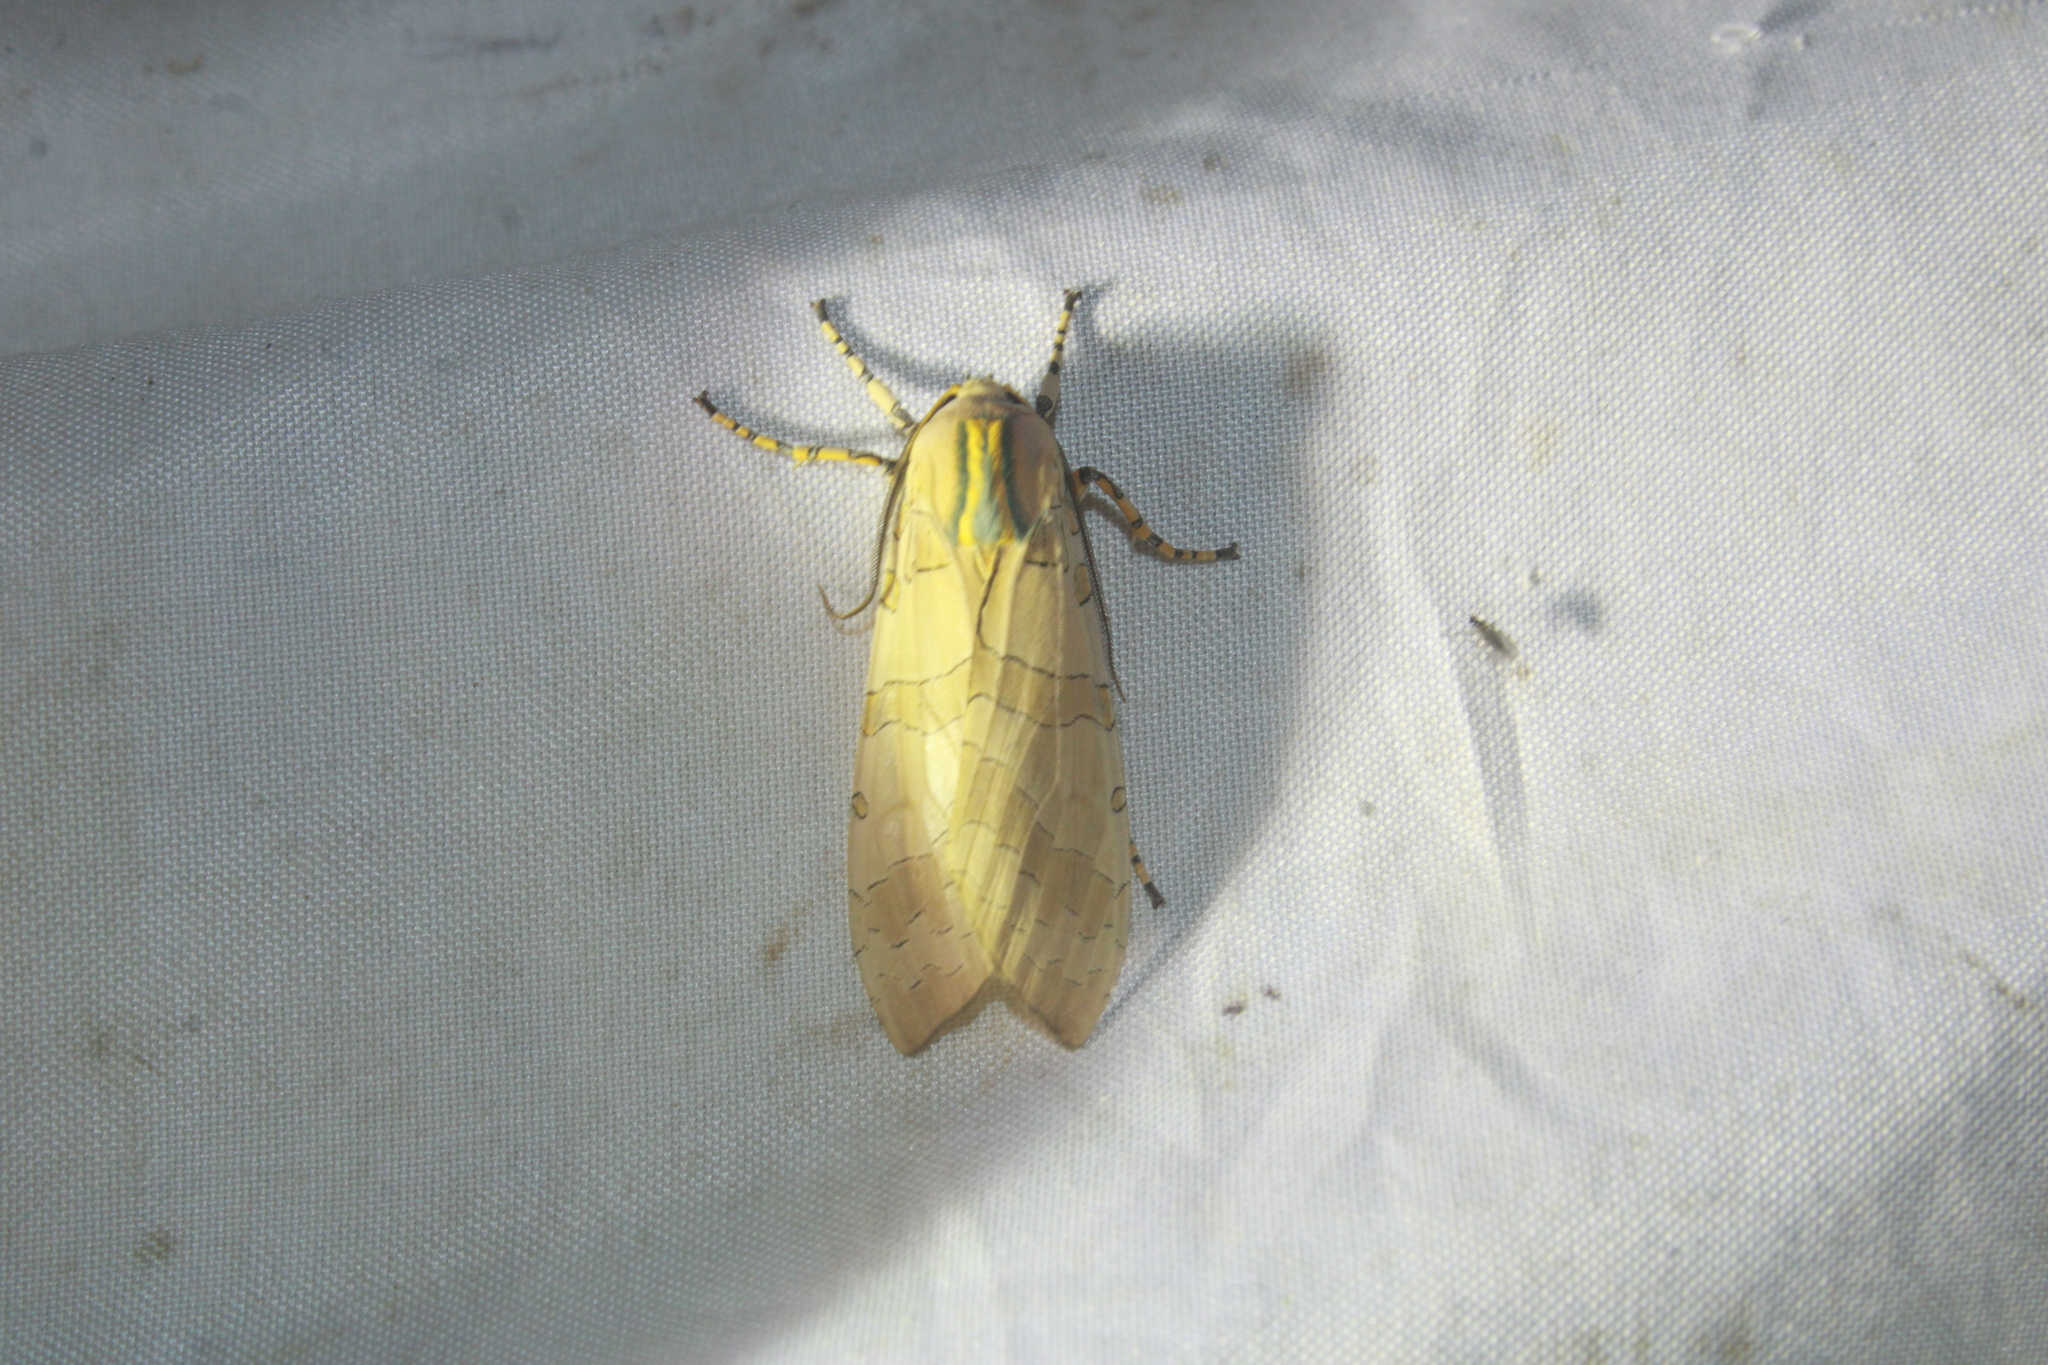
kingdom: Animalia
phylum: Arthropoda
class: Insecta
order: Lepidoptera
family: Erebidae
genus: Halysidota
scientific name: Halysidota cinctipes
